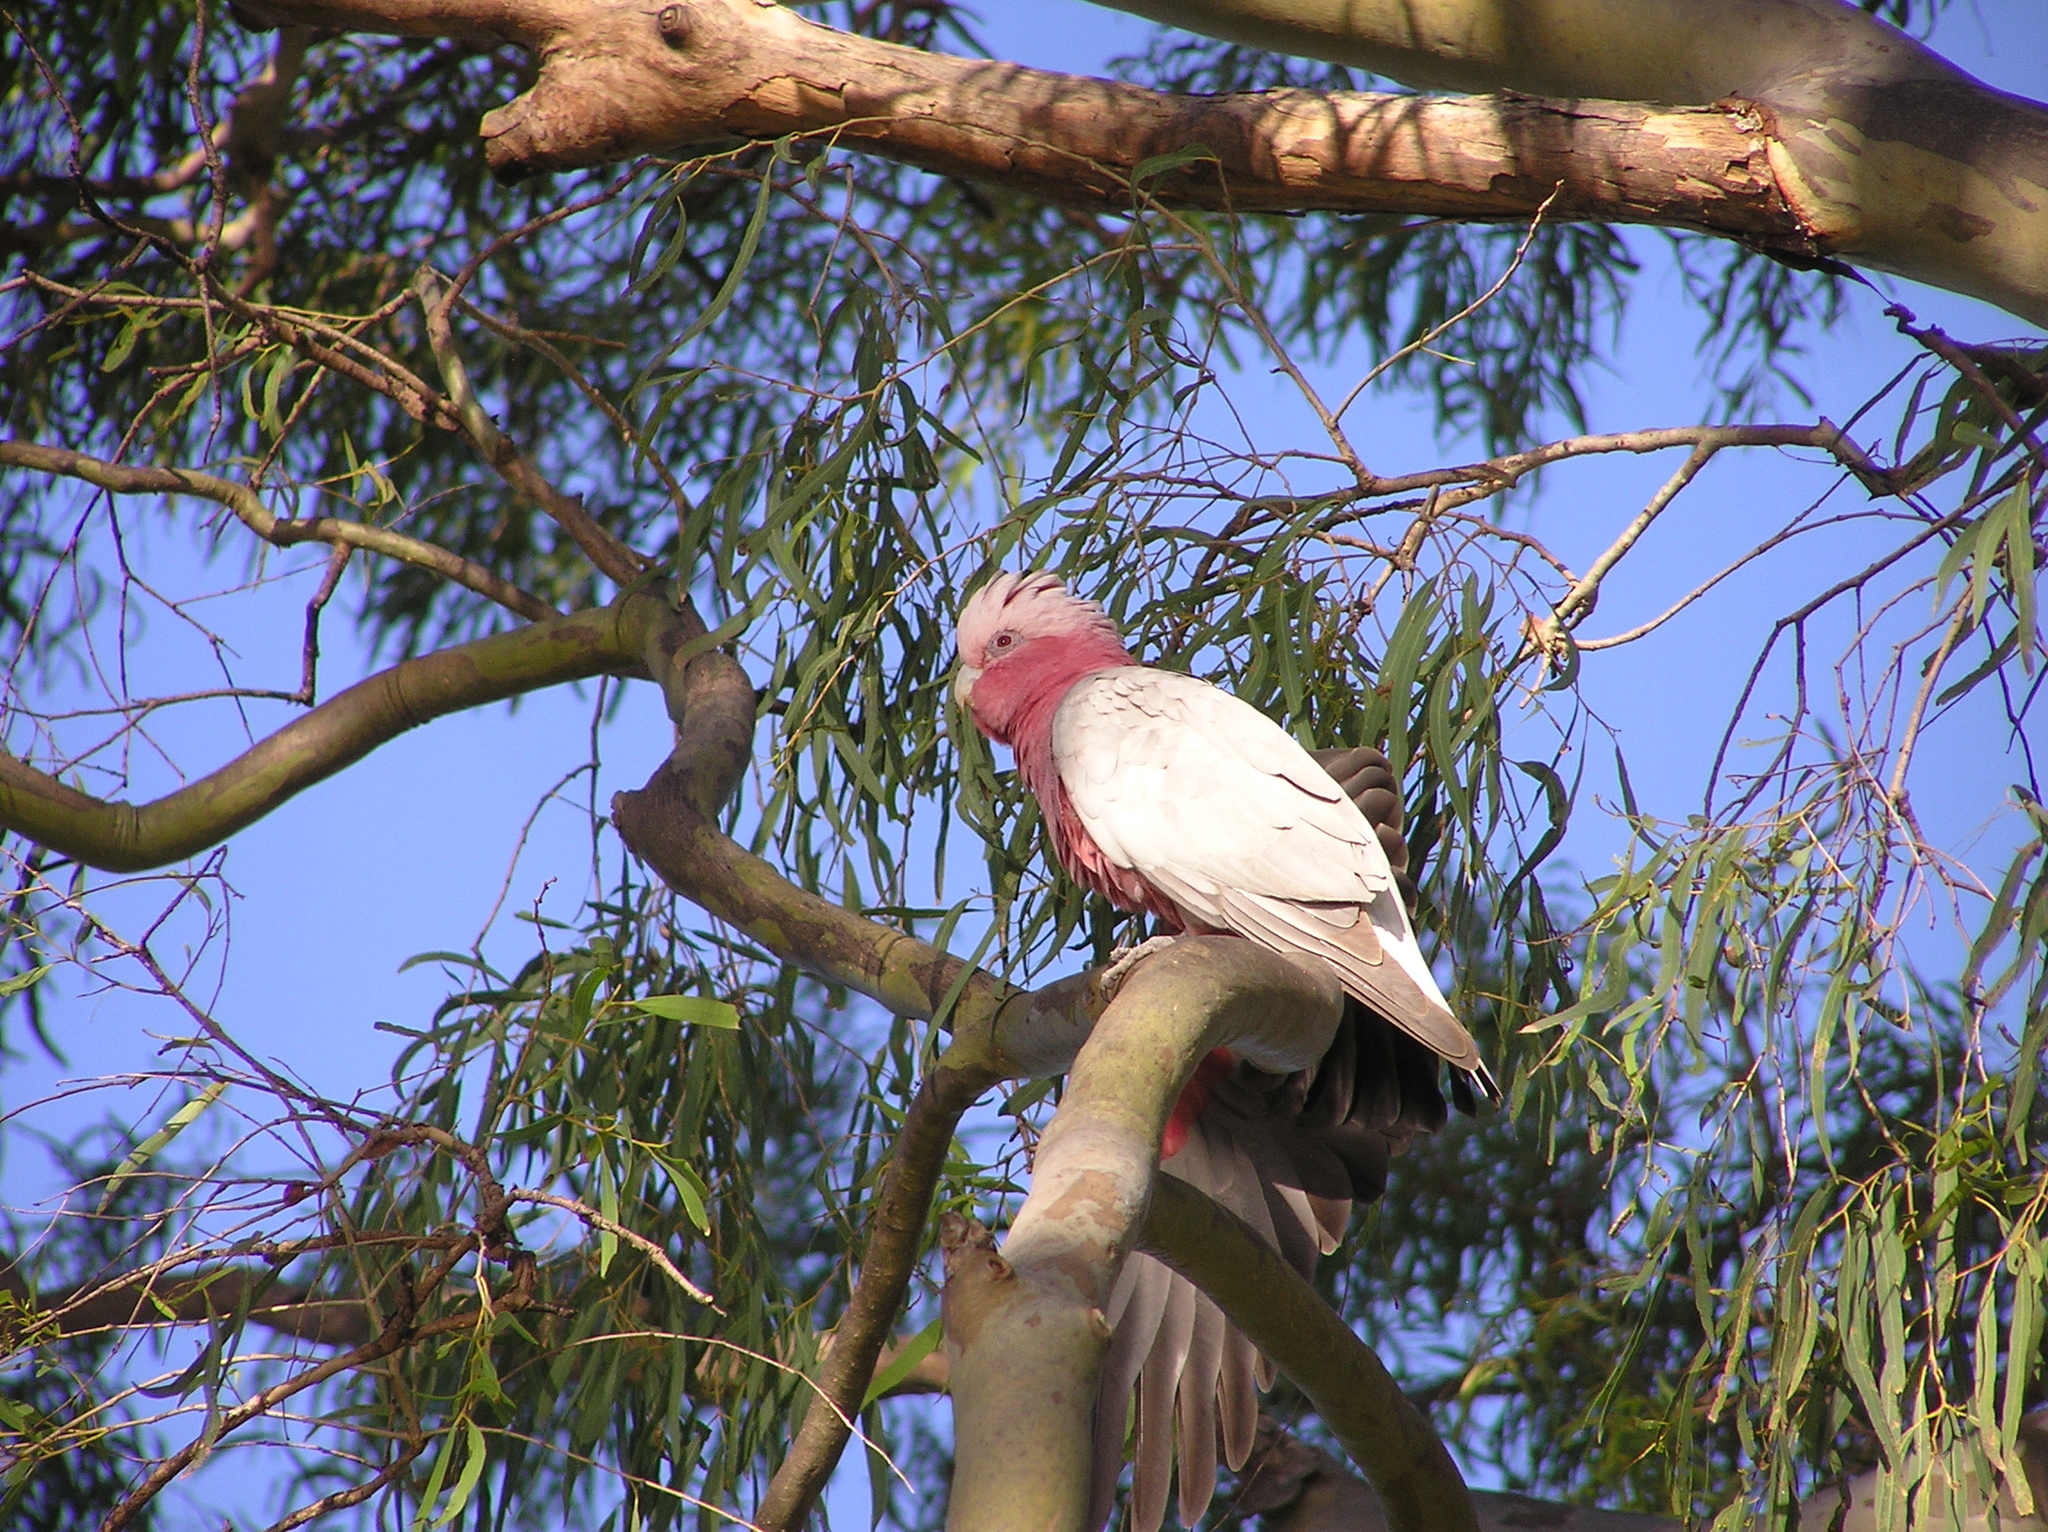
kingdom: Animalia
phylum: Chordata
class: Aves
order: Psittaciformes
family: Psittacidae
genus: Eolophus
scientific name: Eolophus roseicapilla
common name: Galah
